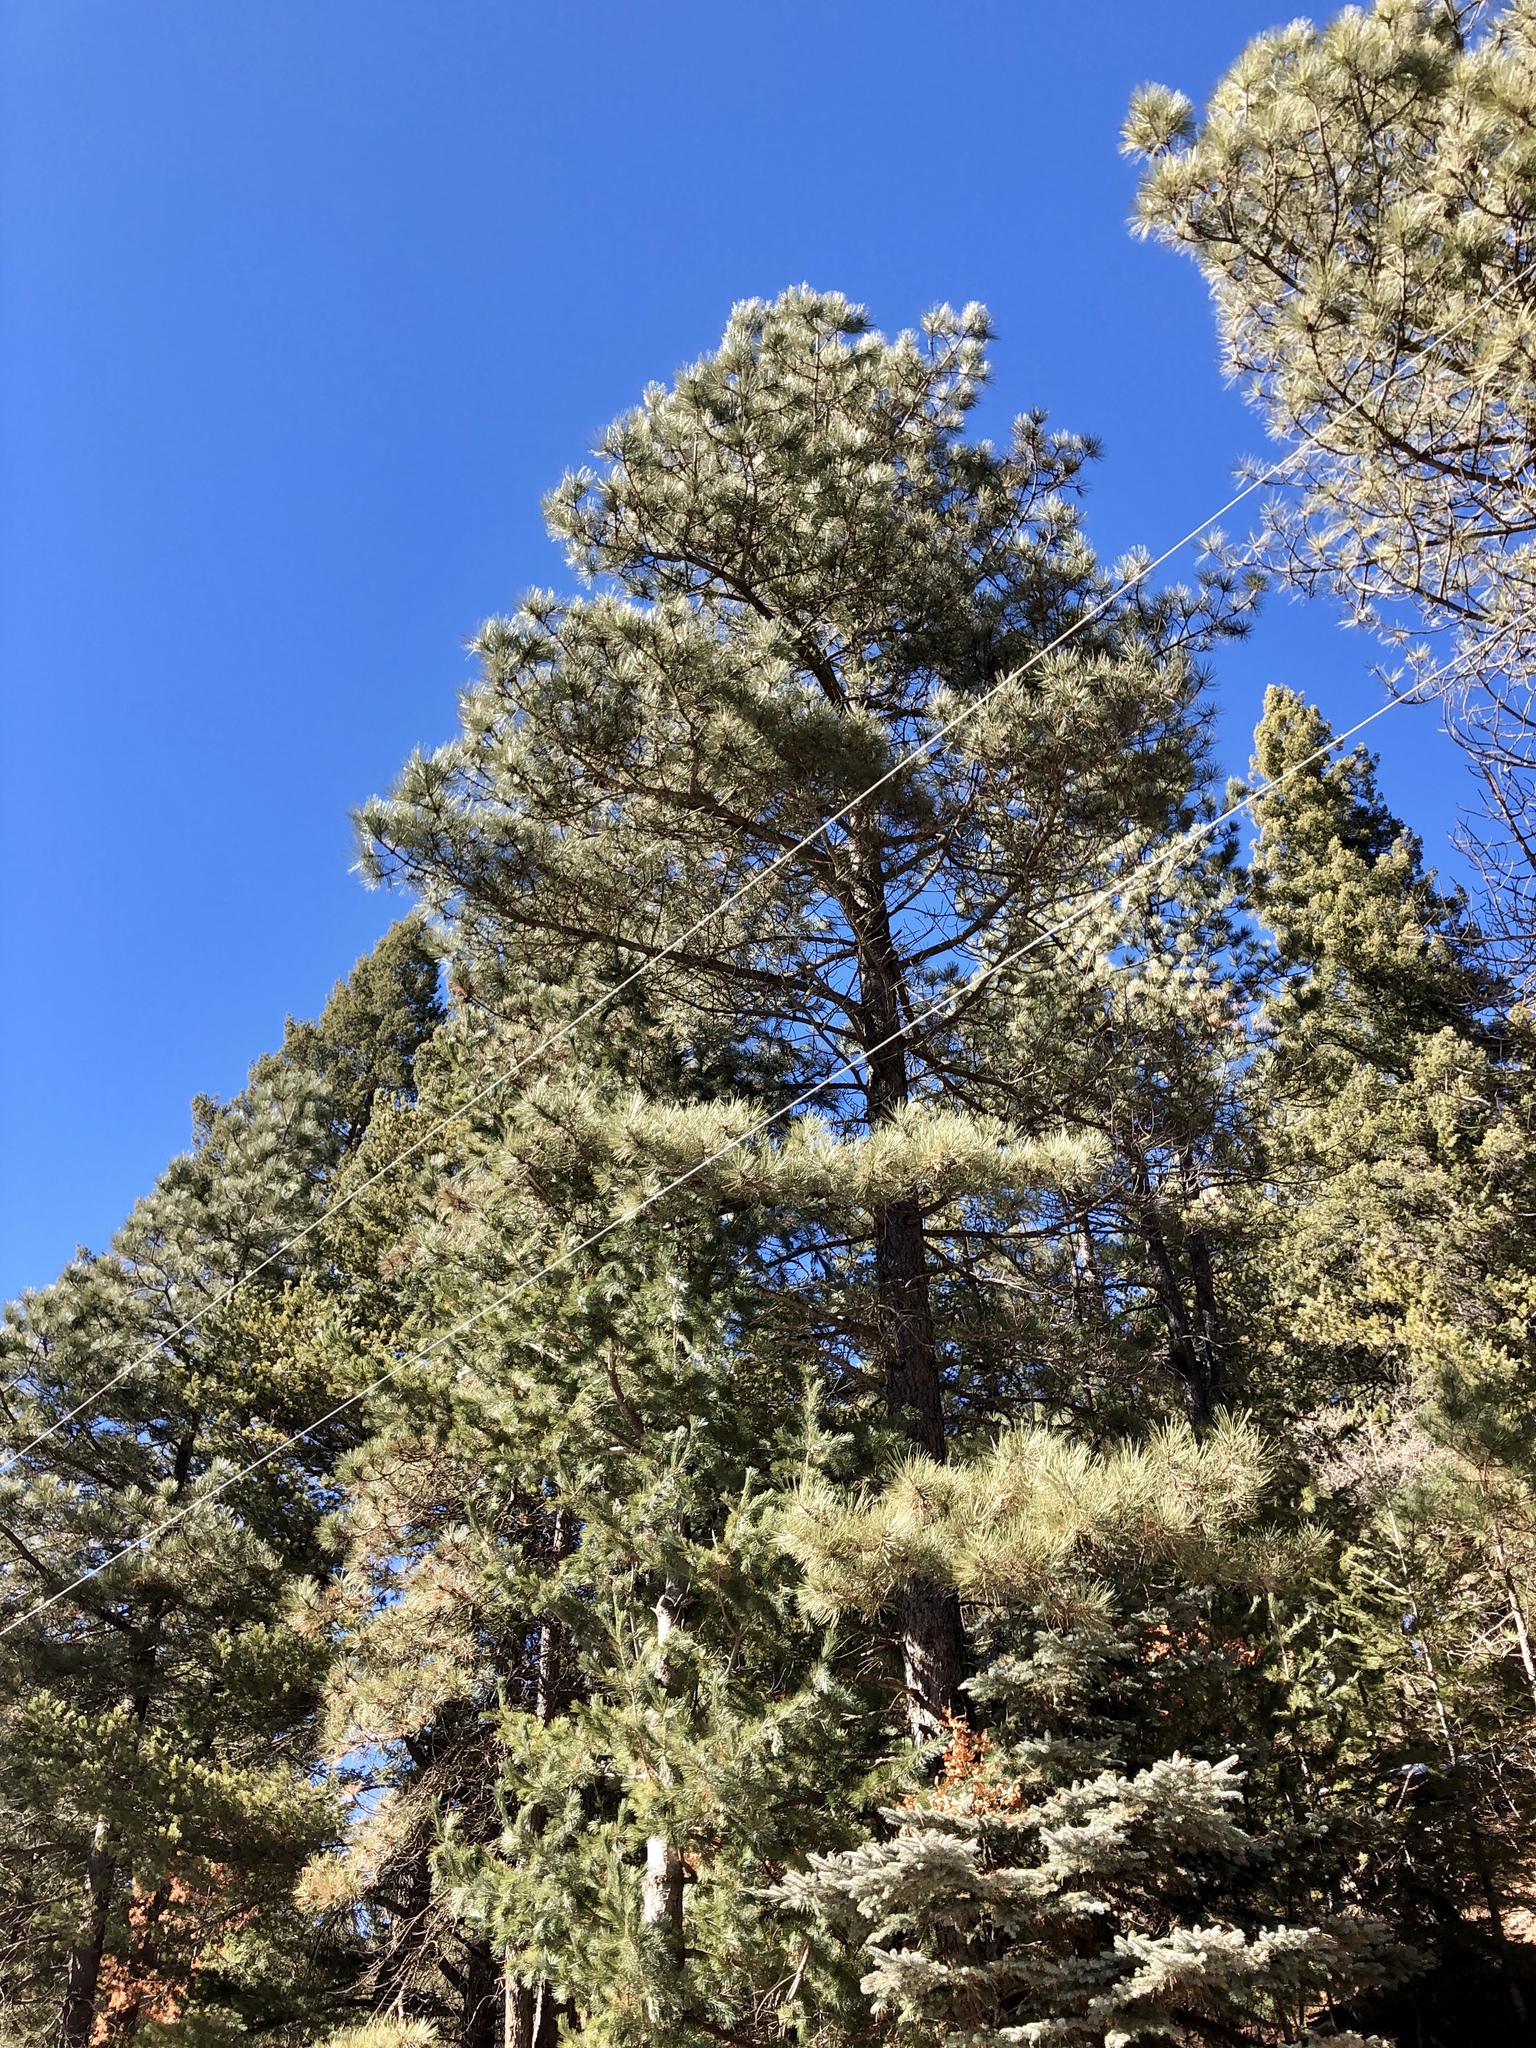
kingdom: Plantae
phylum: Tracheophyta
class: Pinopsida
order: Pinales
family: Pinaceae
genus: Pinus
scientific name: Pinus ponderosa
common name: Western yellow-pine
